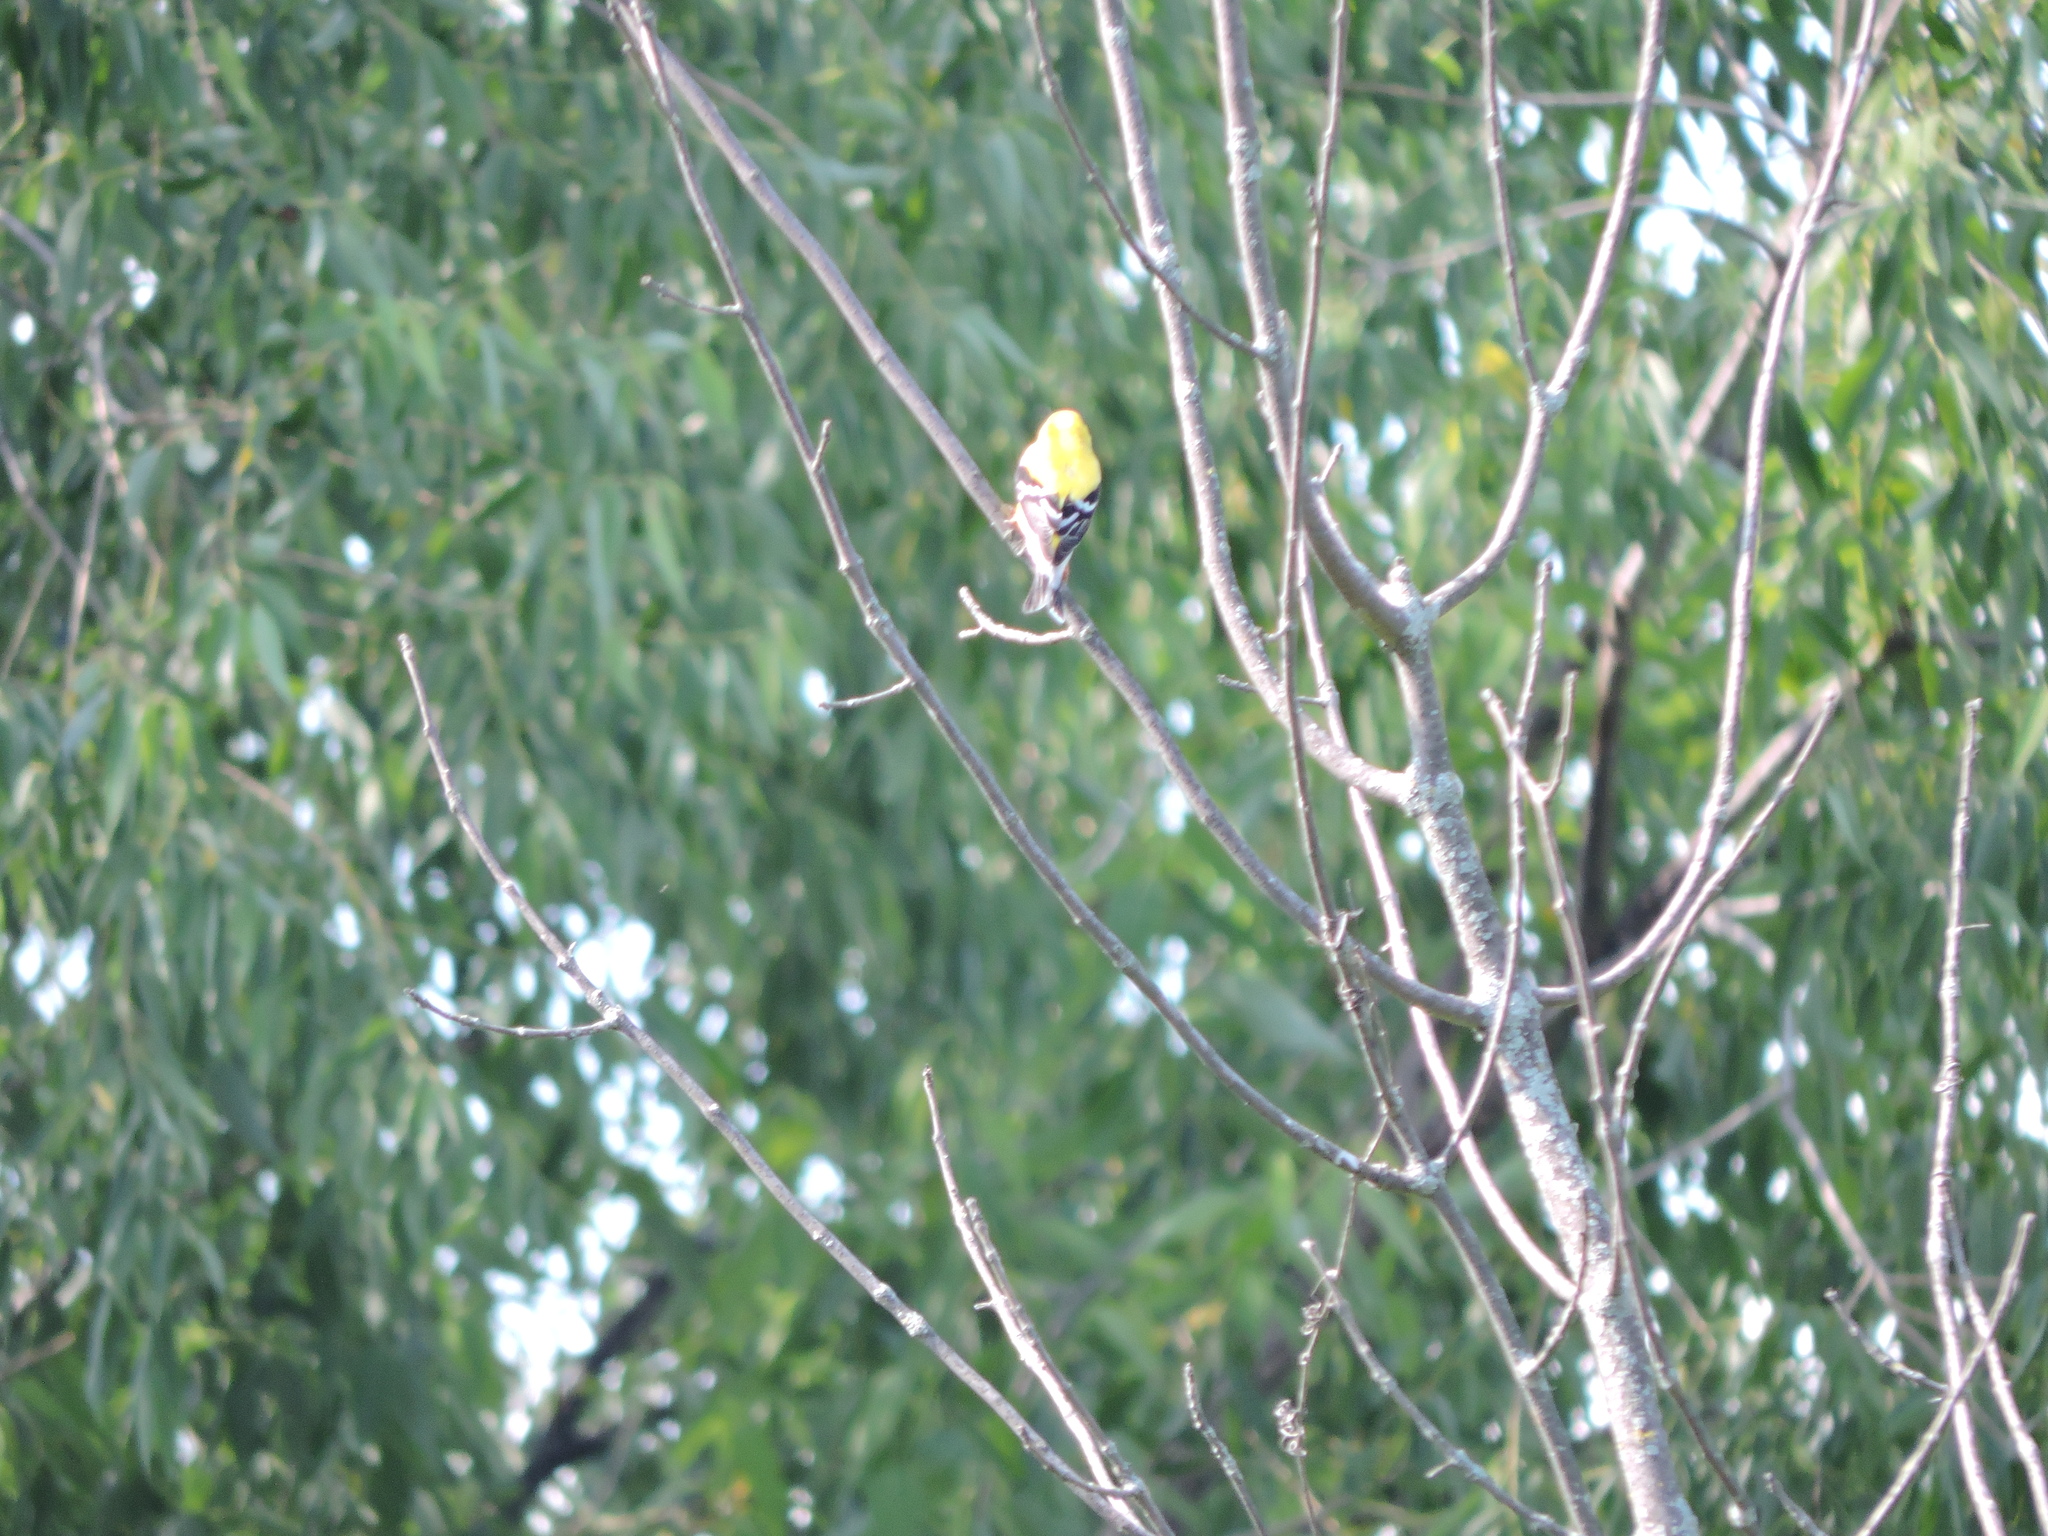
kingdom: Animalia
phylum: Chordata
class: Aves
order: Passeriformes
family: Fringillidae
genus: Spinus
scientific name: Spinus tristis
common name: American goldfinch
